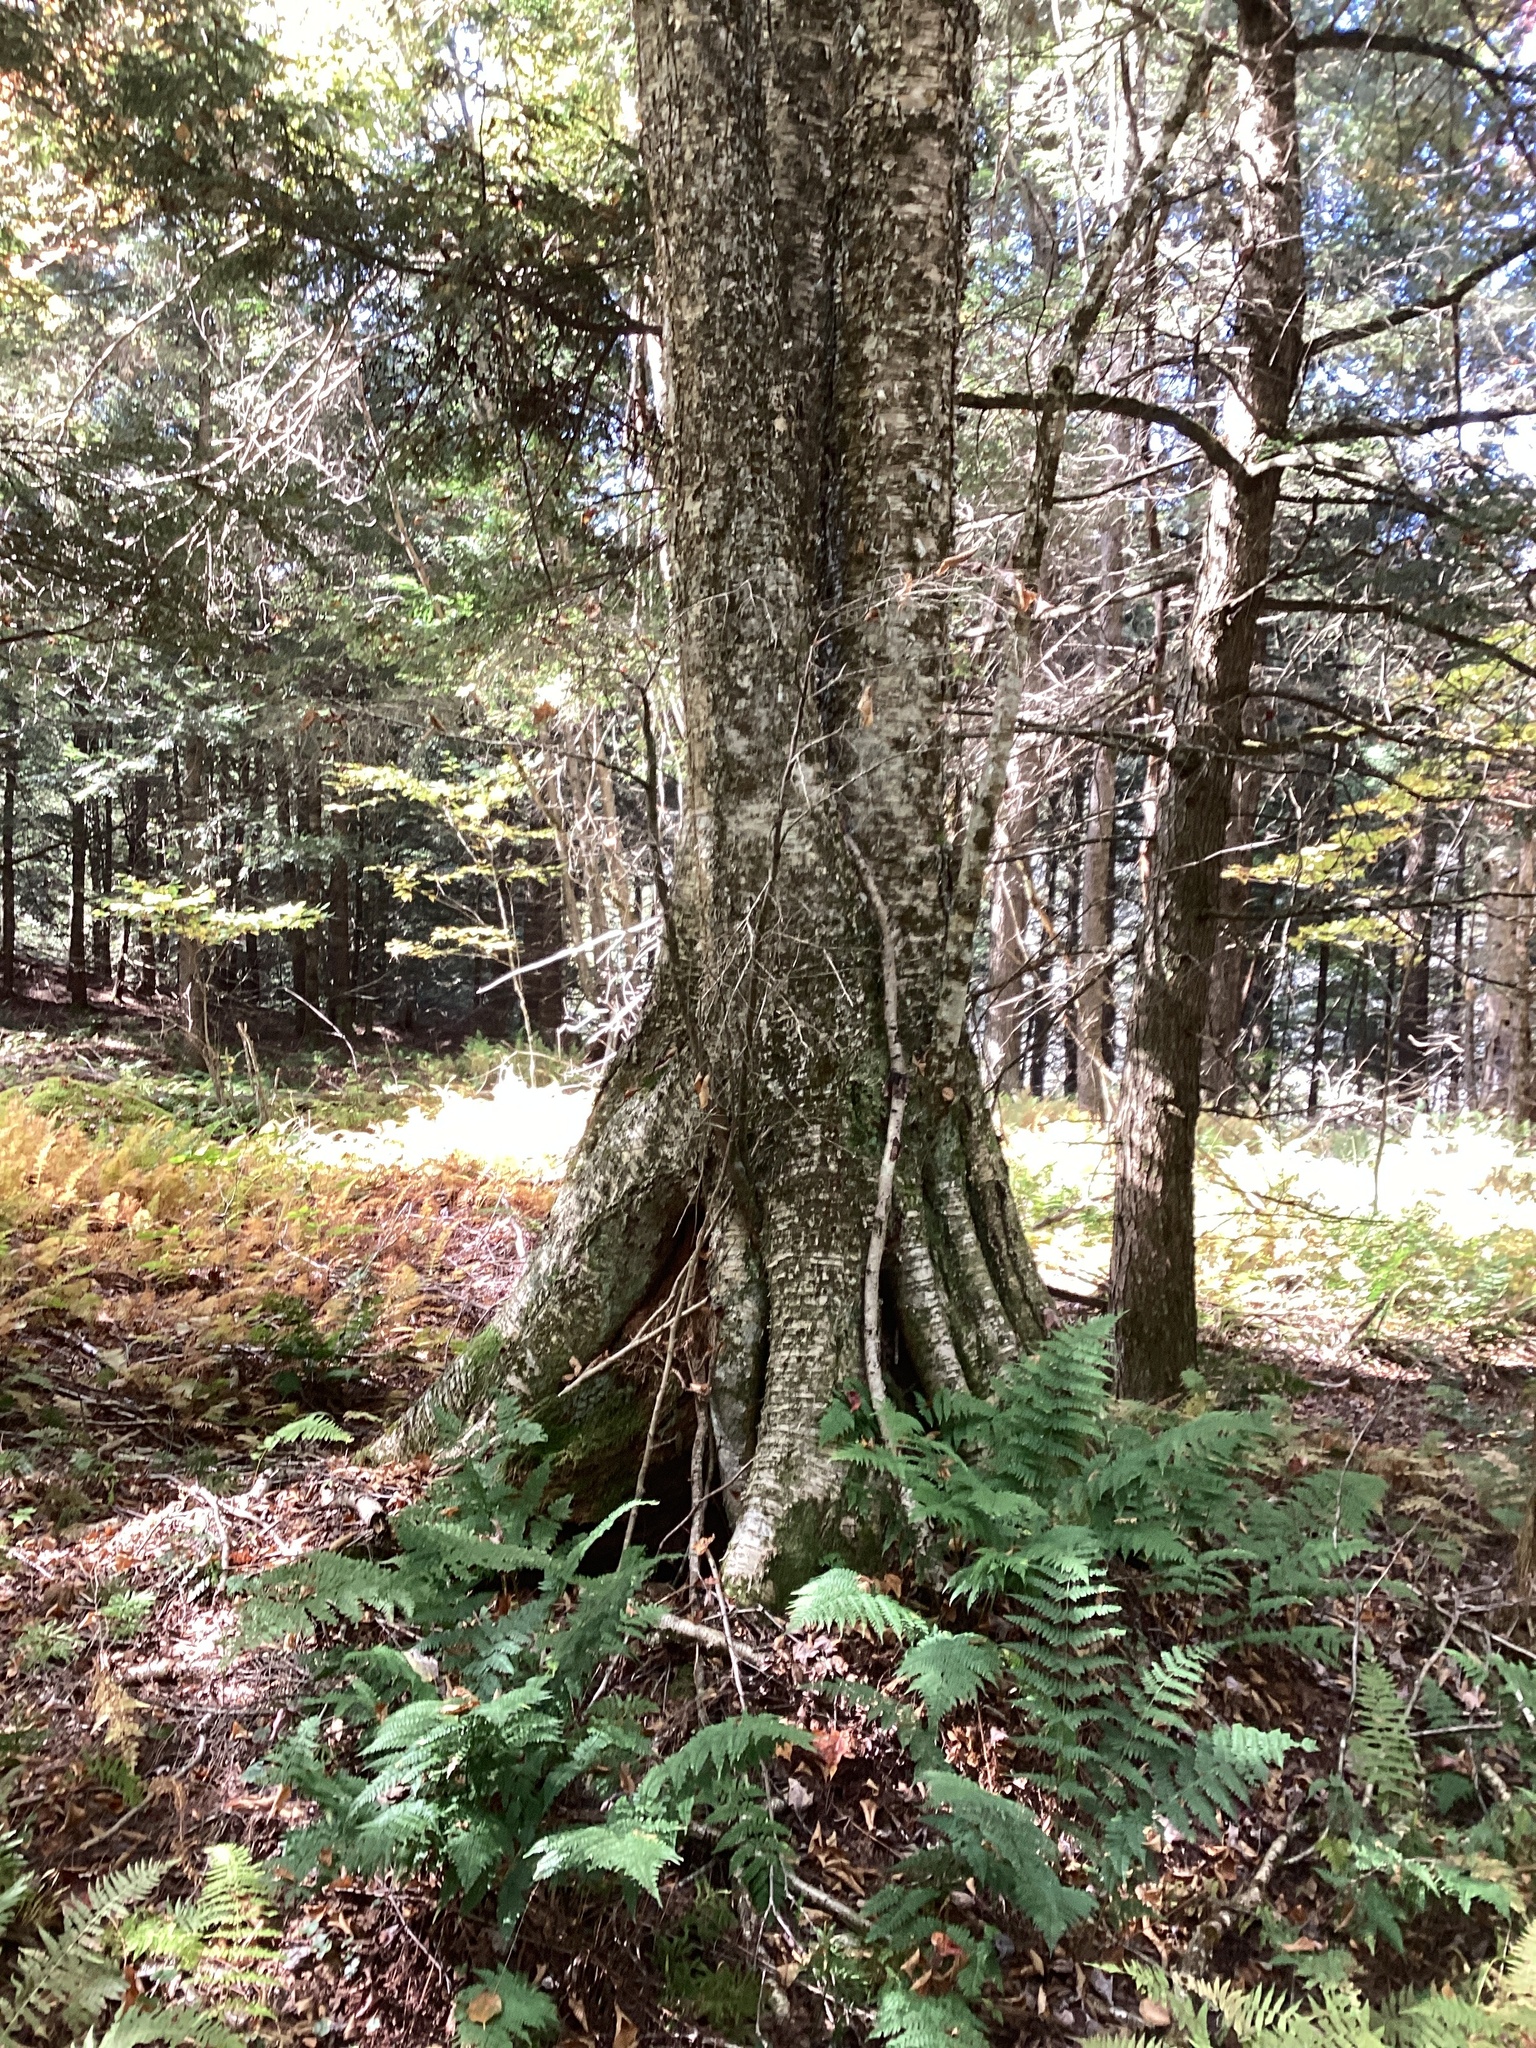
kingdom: Plantae
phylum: Tracheophyta
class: Magnoliopsida
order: Fagales
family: Betulaceae
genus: Betula
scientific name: Betula alleghaniensis
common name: Yellow birch
